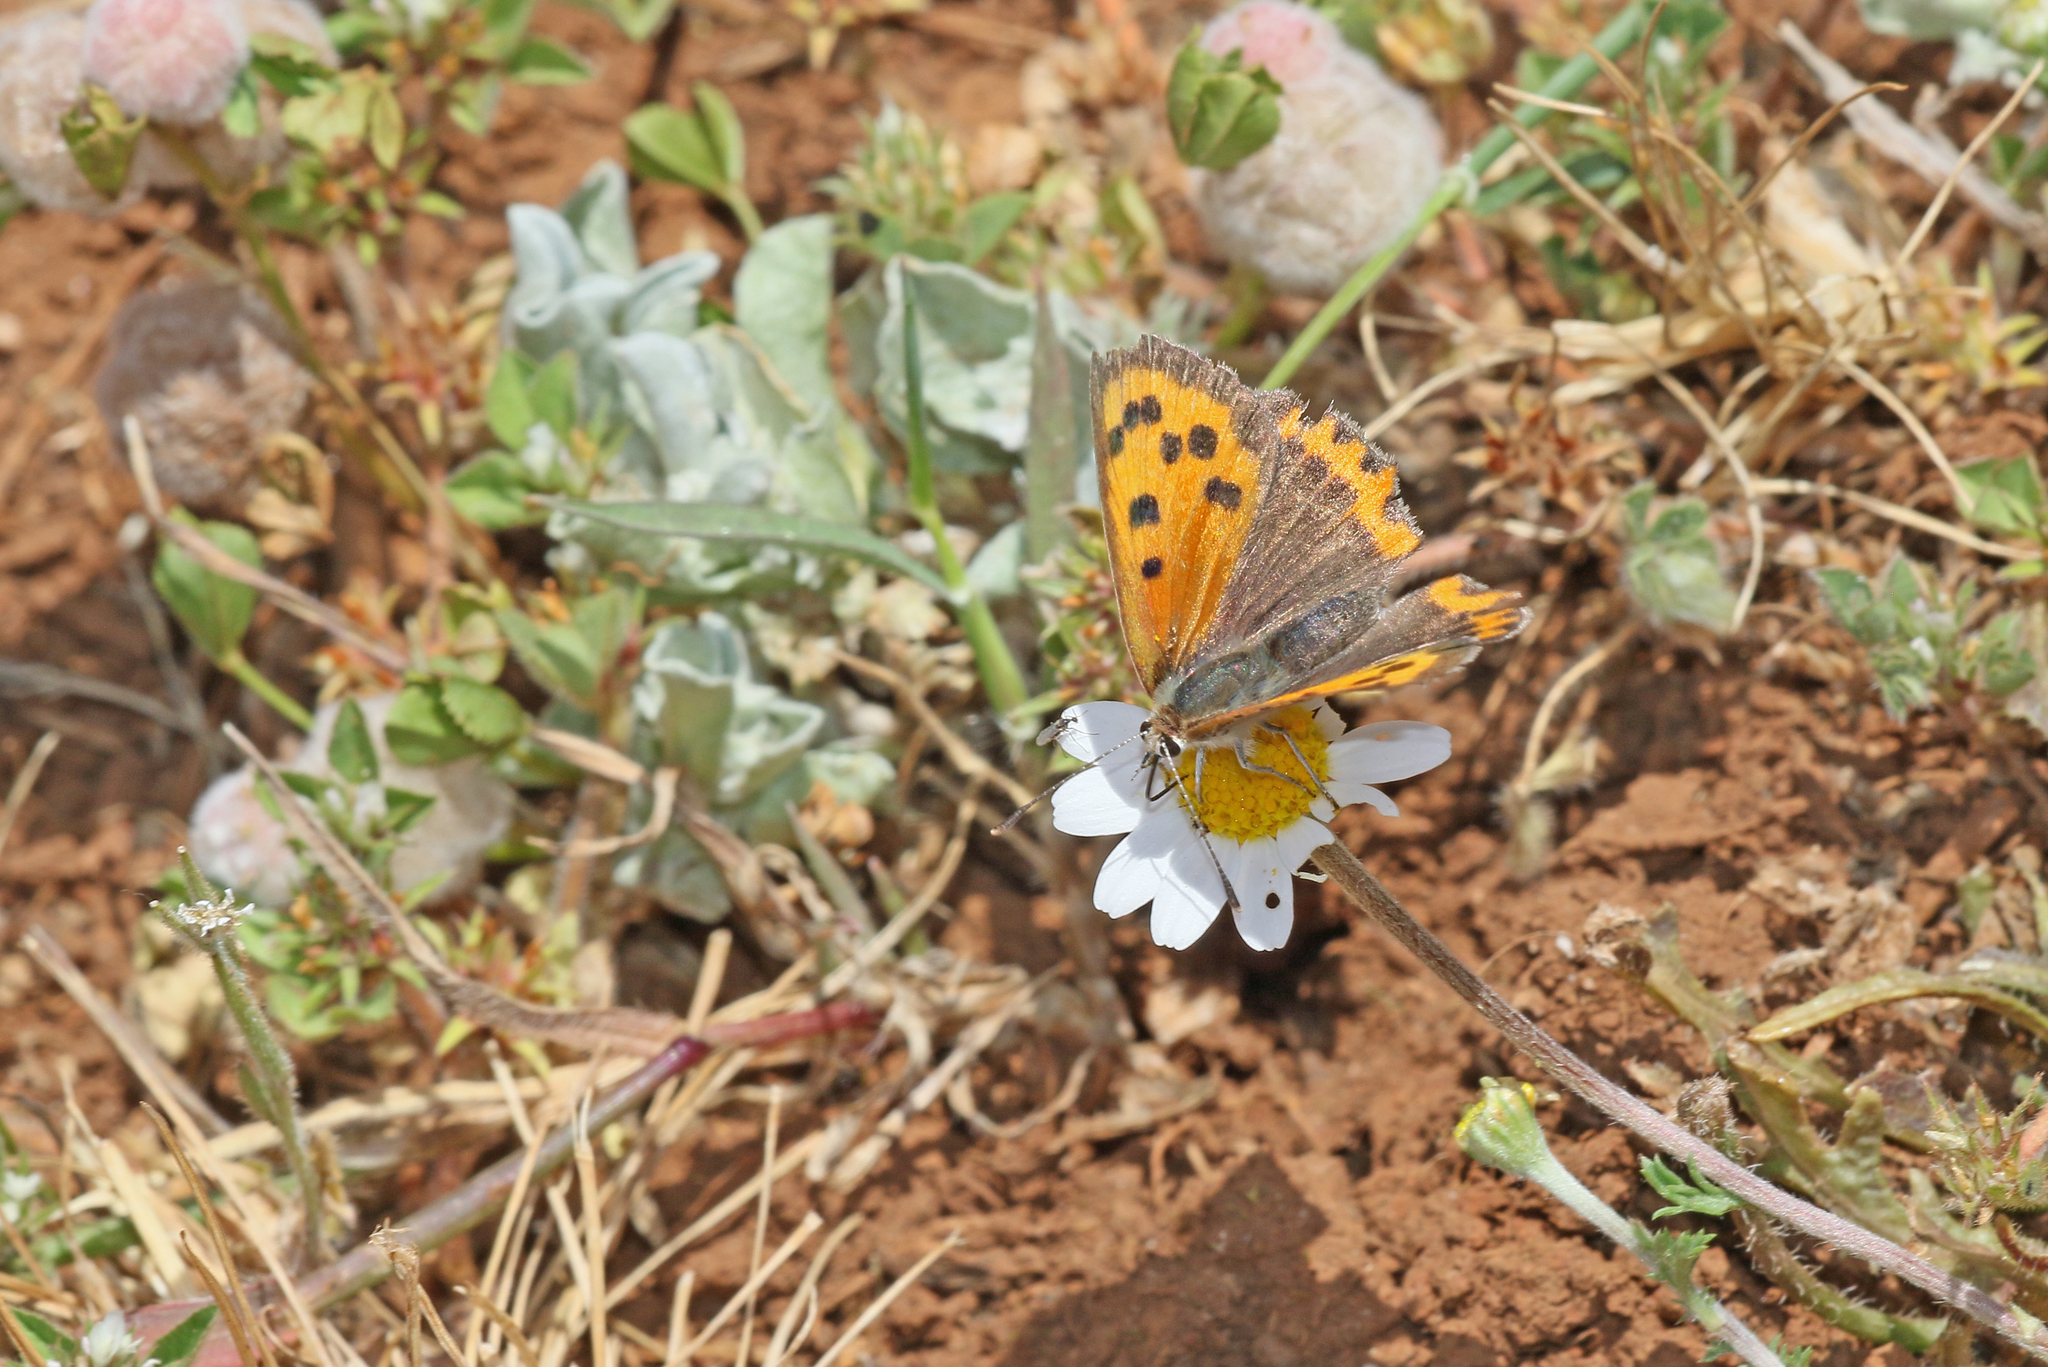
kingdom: Animalia
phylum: Arthropoda
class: Insecta
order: Lepidoptera
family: Lycaenidae
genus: Lycaena
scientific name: Lycaena phlaeas
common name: Small copper
